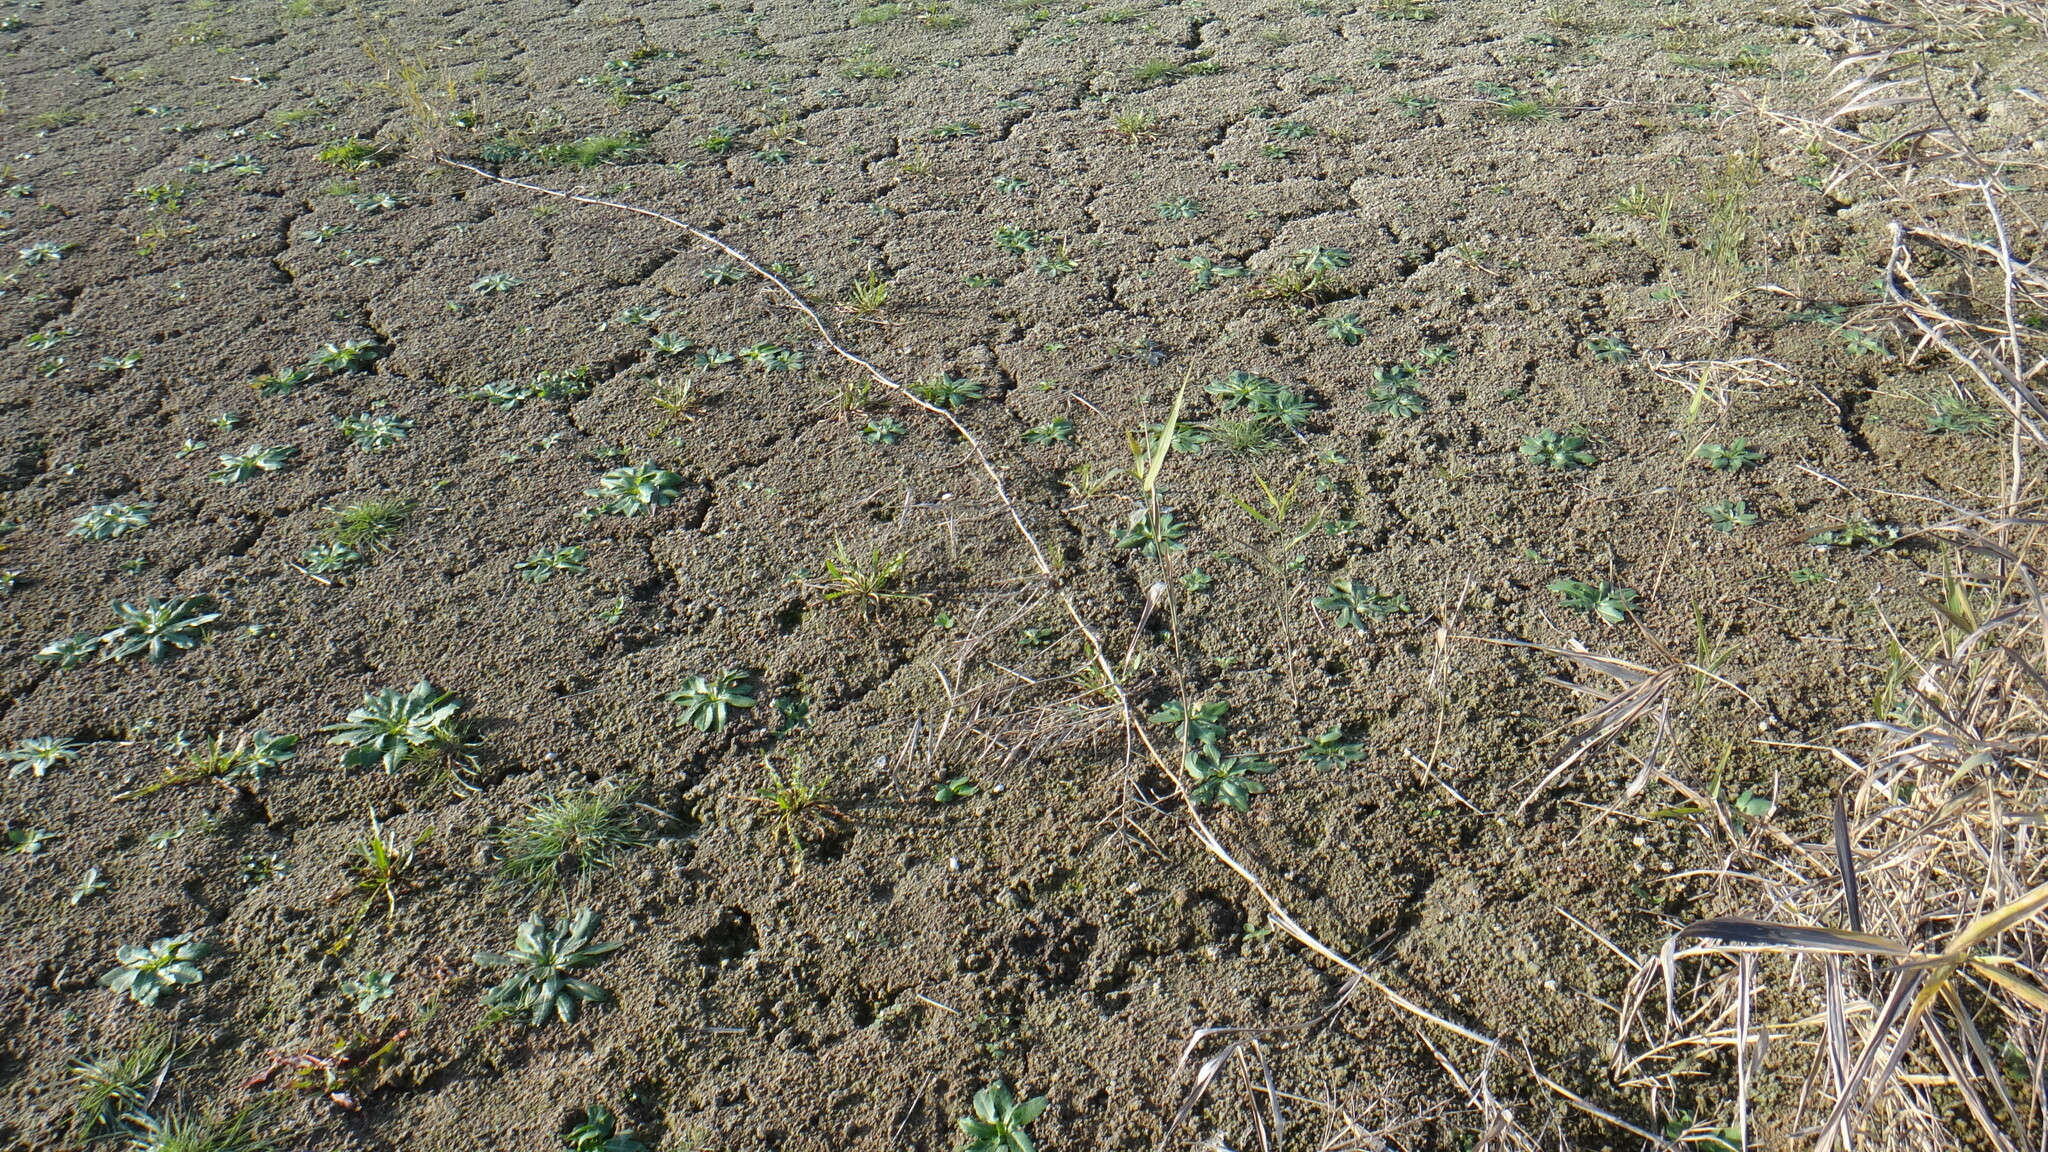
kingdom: Plantae
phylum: Tracheophyta
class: Liliopsida
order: Poales
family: Poaceae
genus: Phragmites
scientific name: Phragmites australis
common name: Common reed
